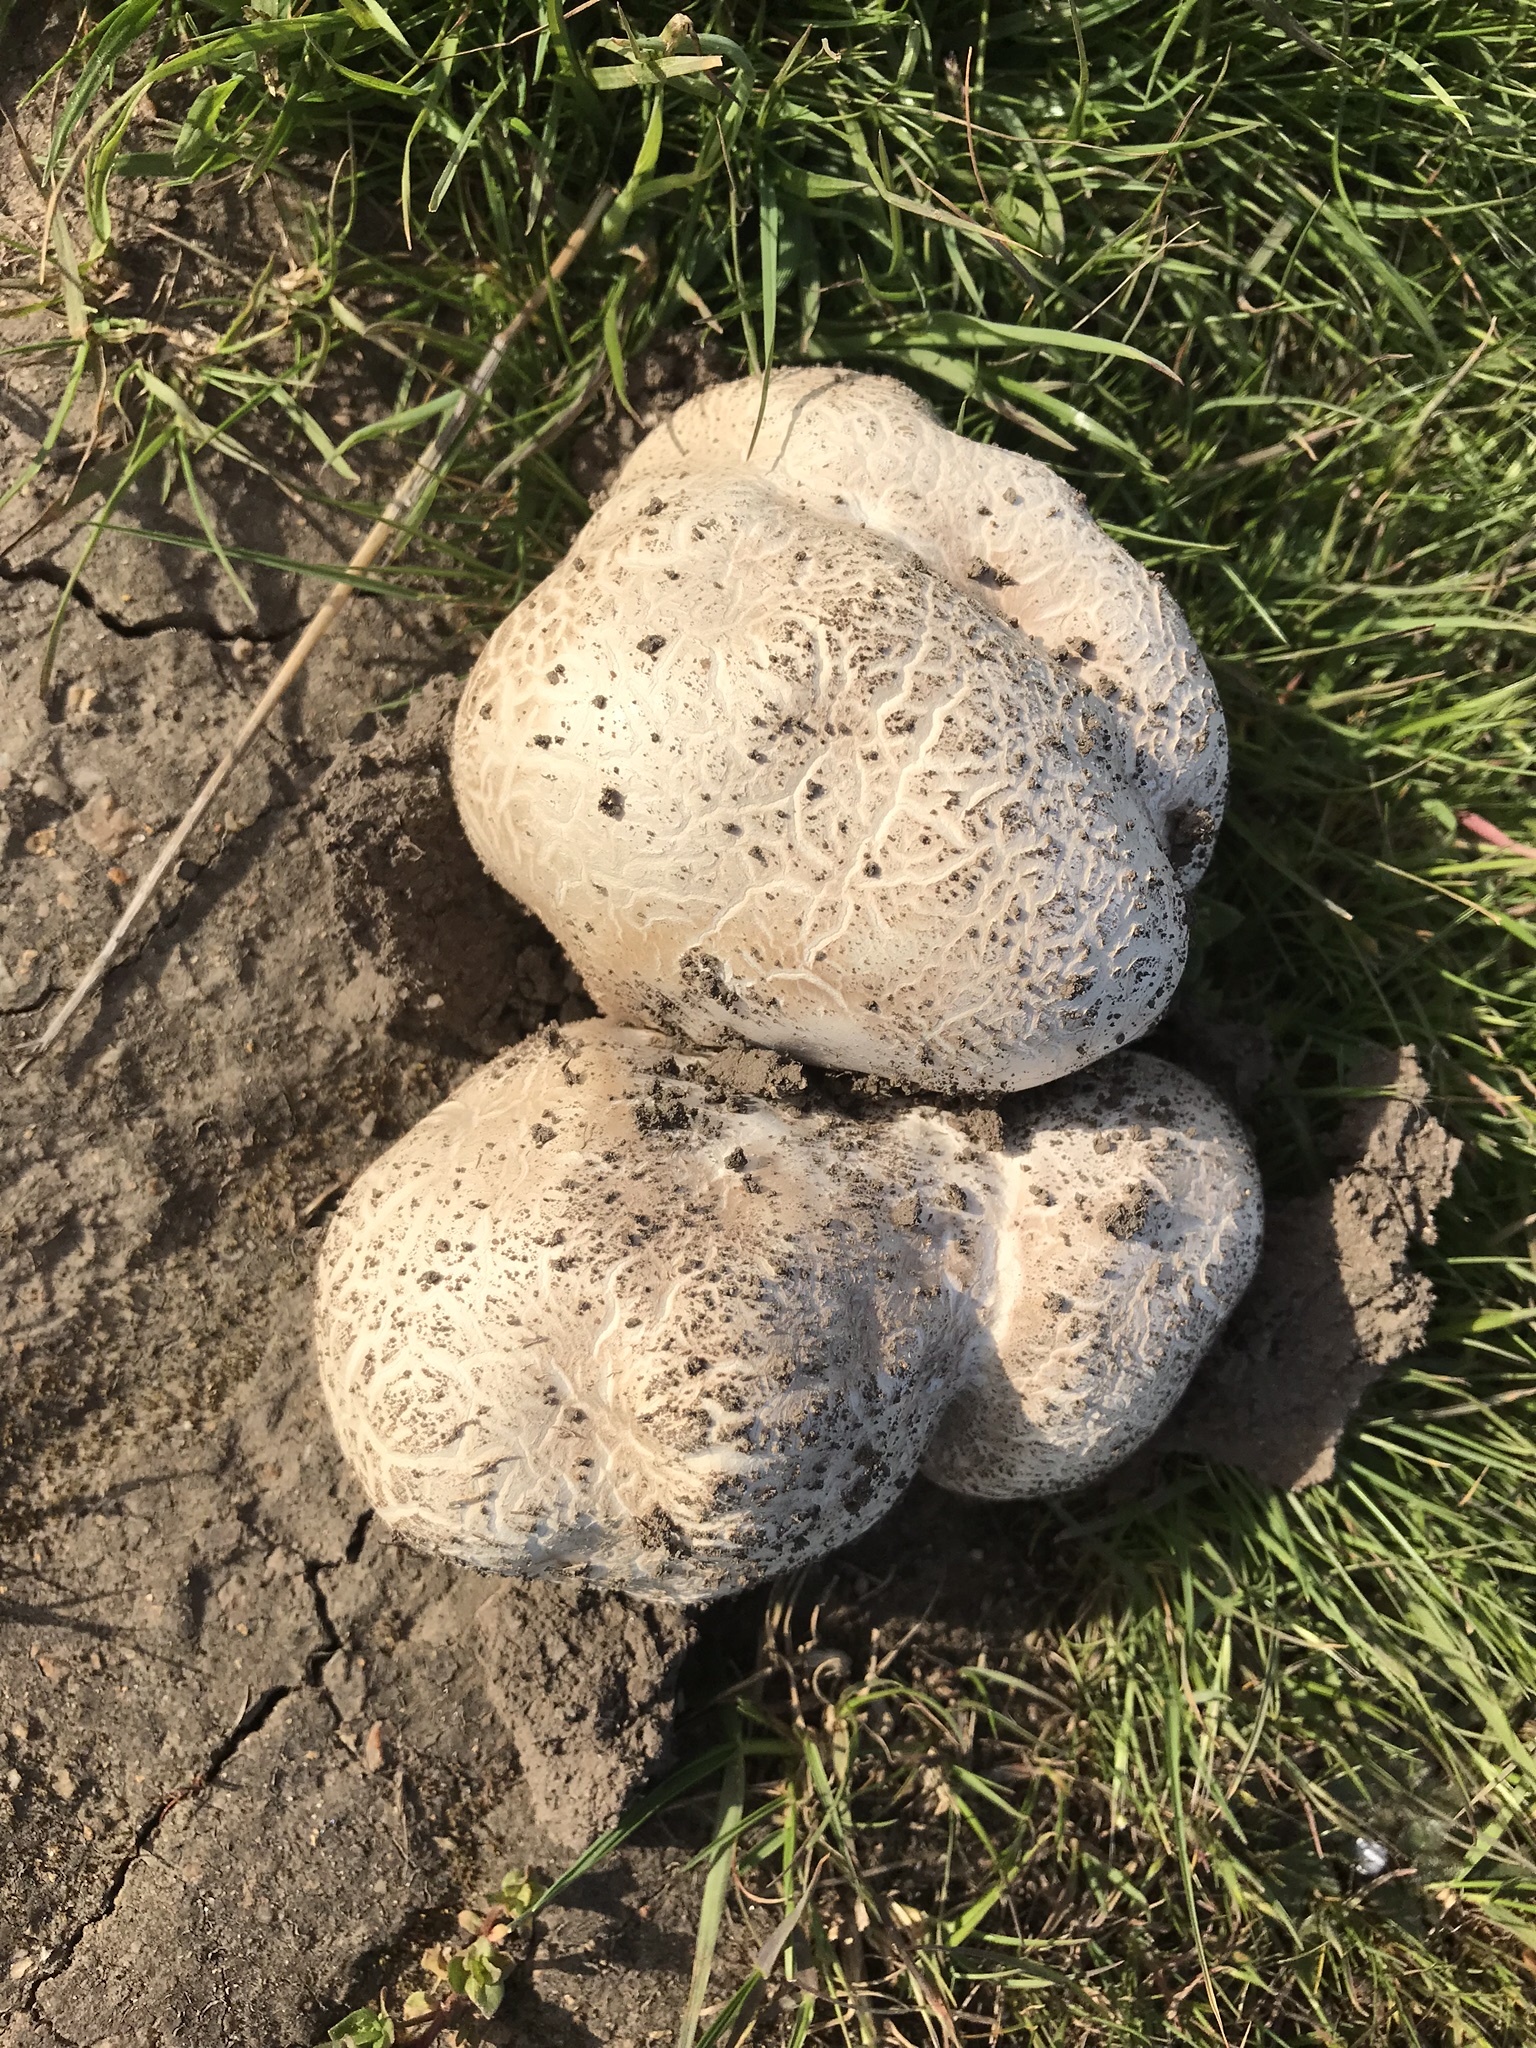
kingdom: Fungi
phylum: Basidiomycota
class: Agaricomycetes
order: Agaricales
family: Lycoperdaceae
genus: Calvatia
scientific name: Calvatia booniana
